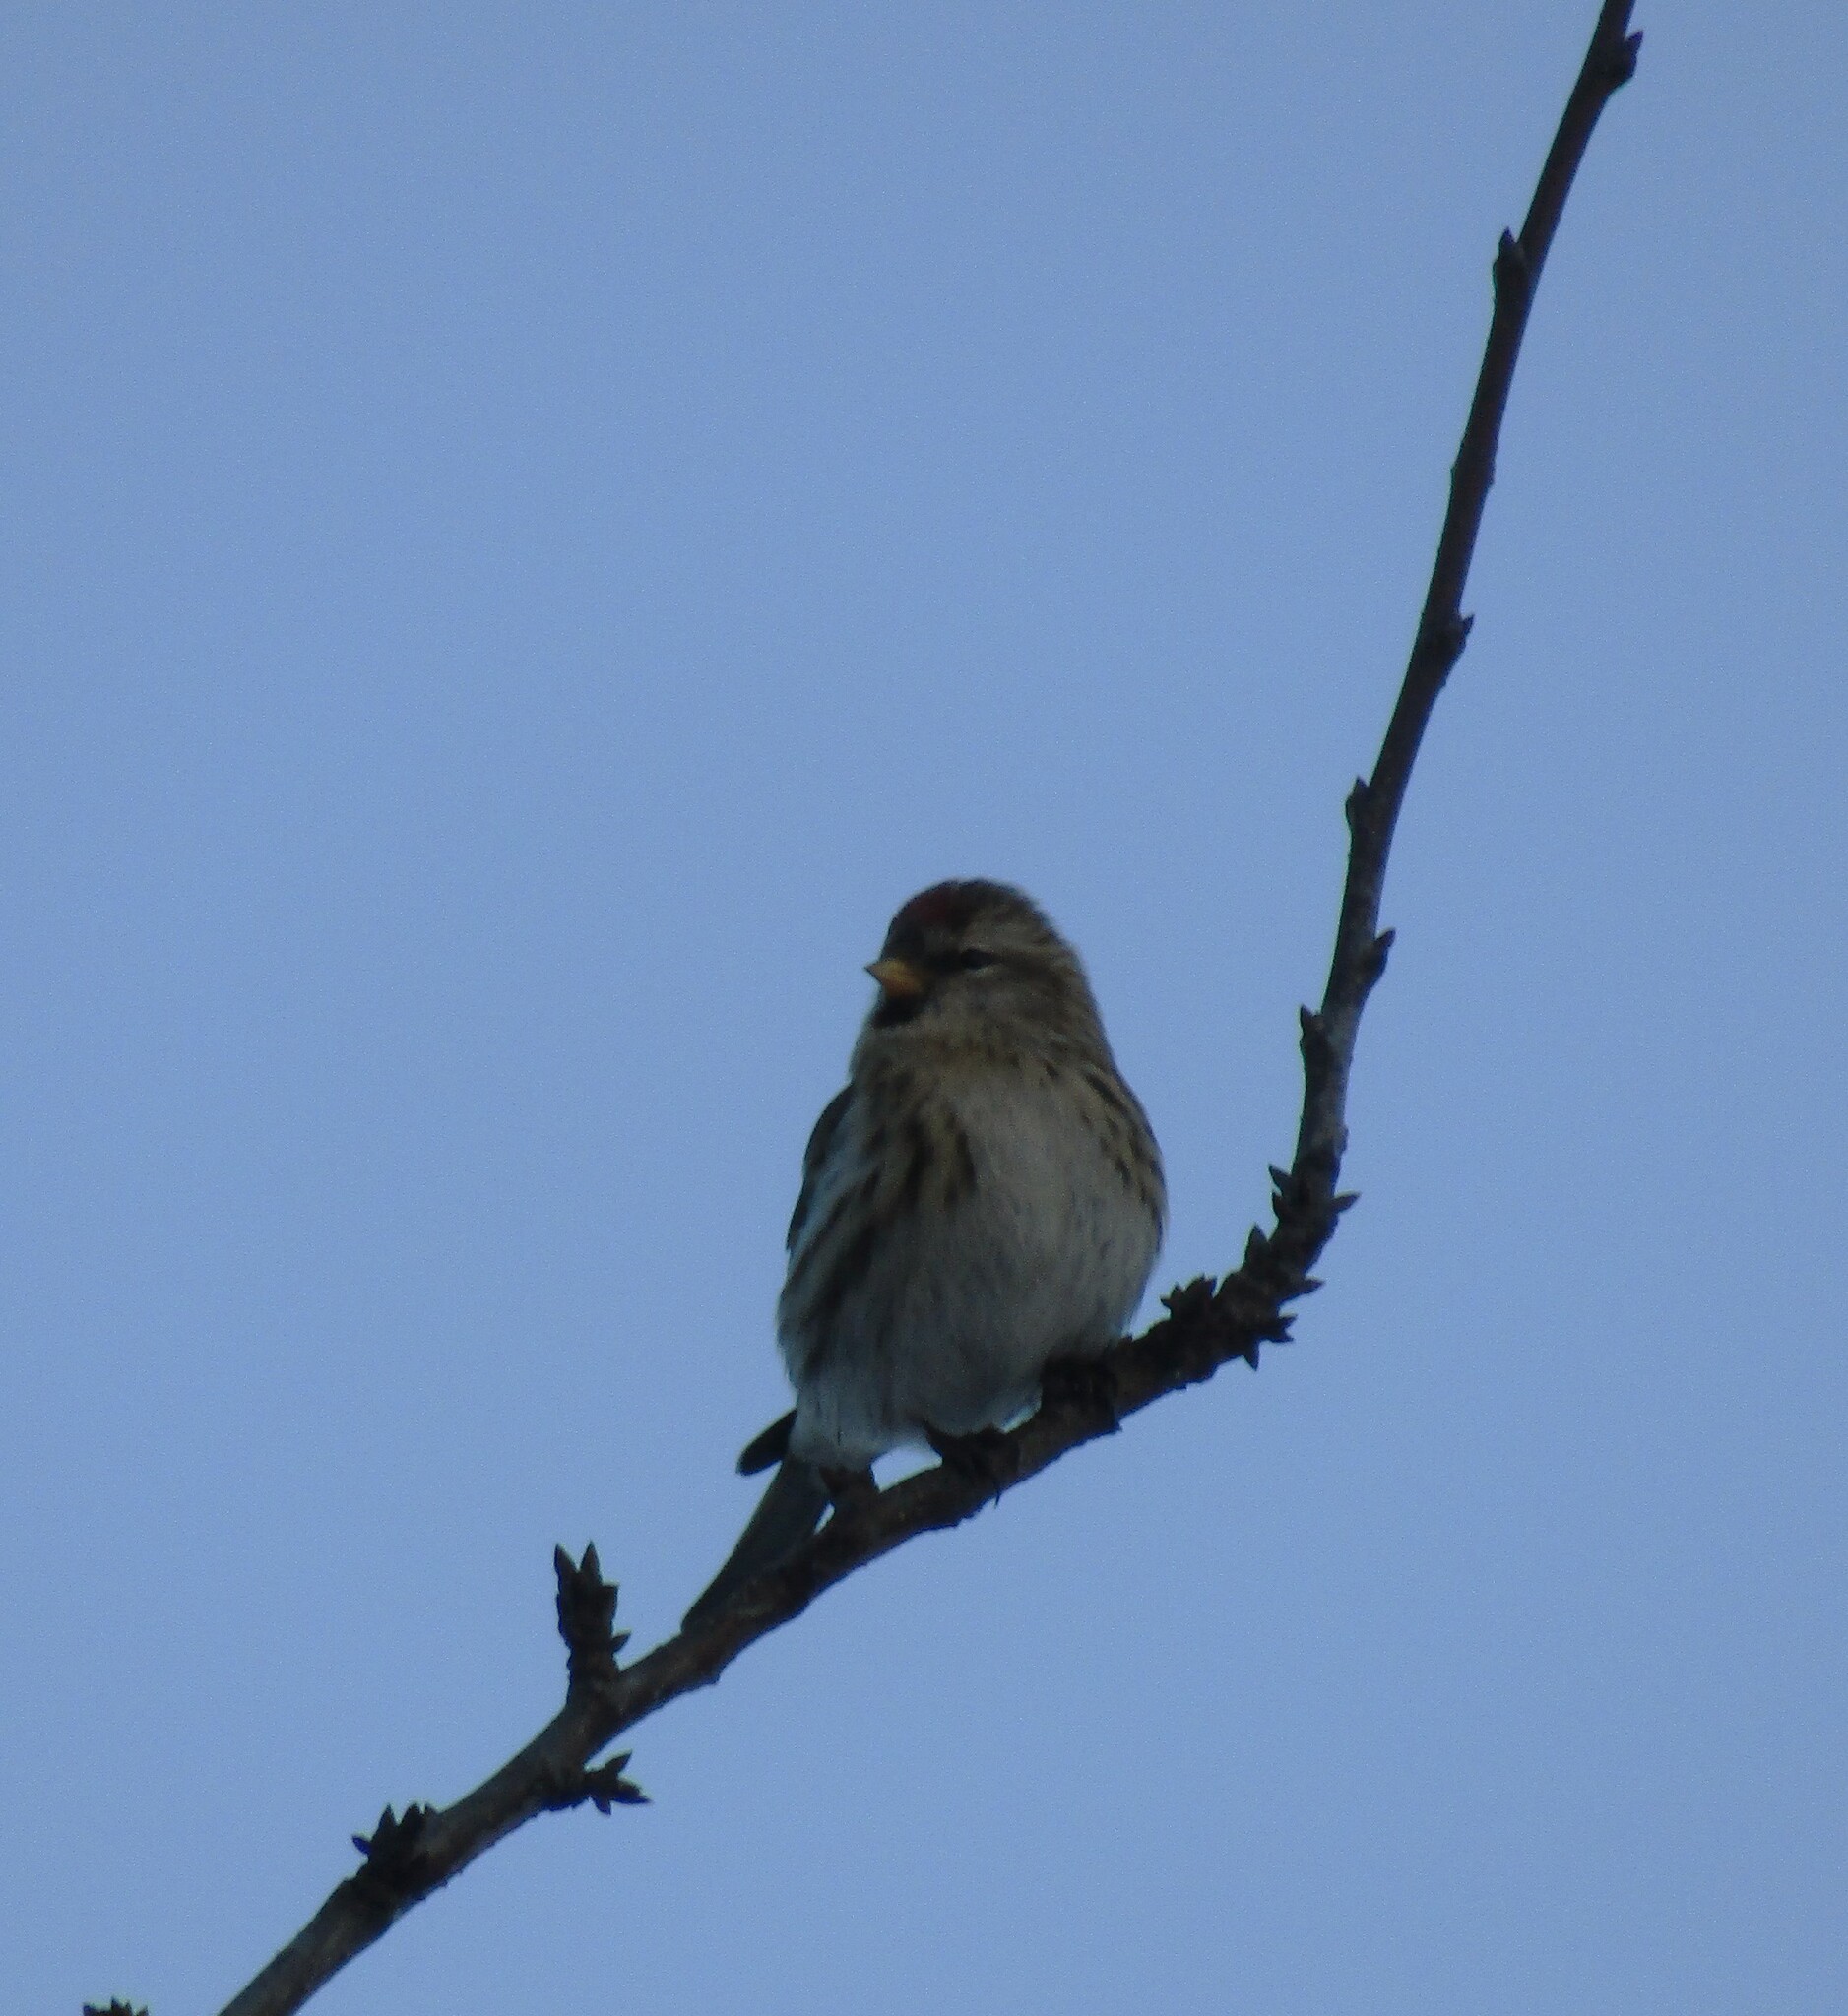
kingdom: Animalia
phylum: Chordata
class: Aves
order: Passeriformes
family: Fringillidae
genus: Acanthis
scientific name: Acanthis flammea
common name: Common redpoll
